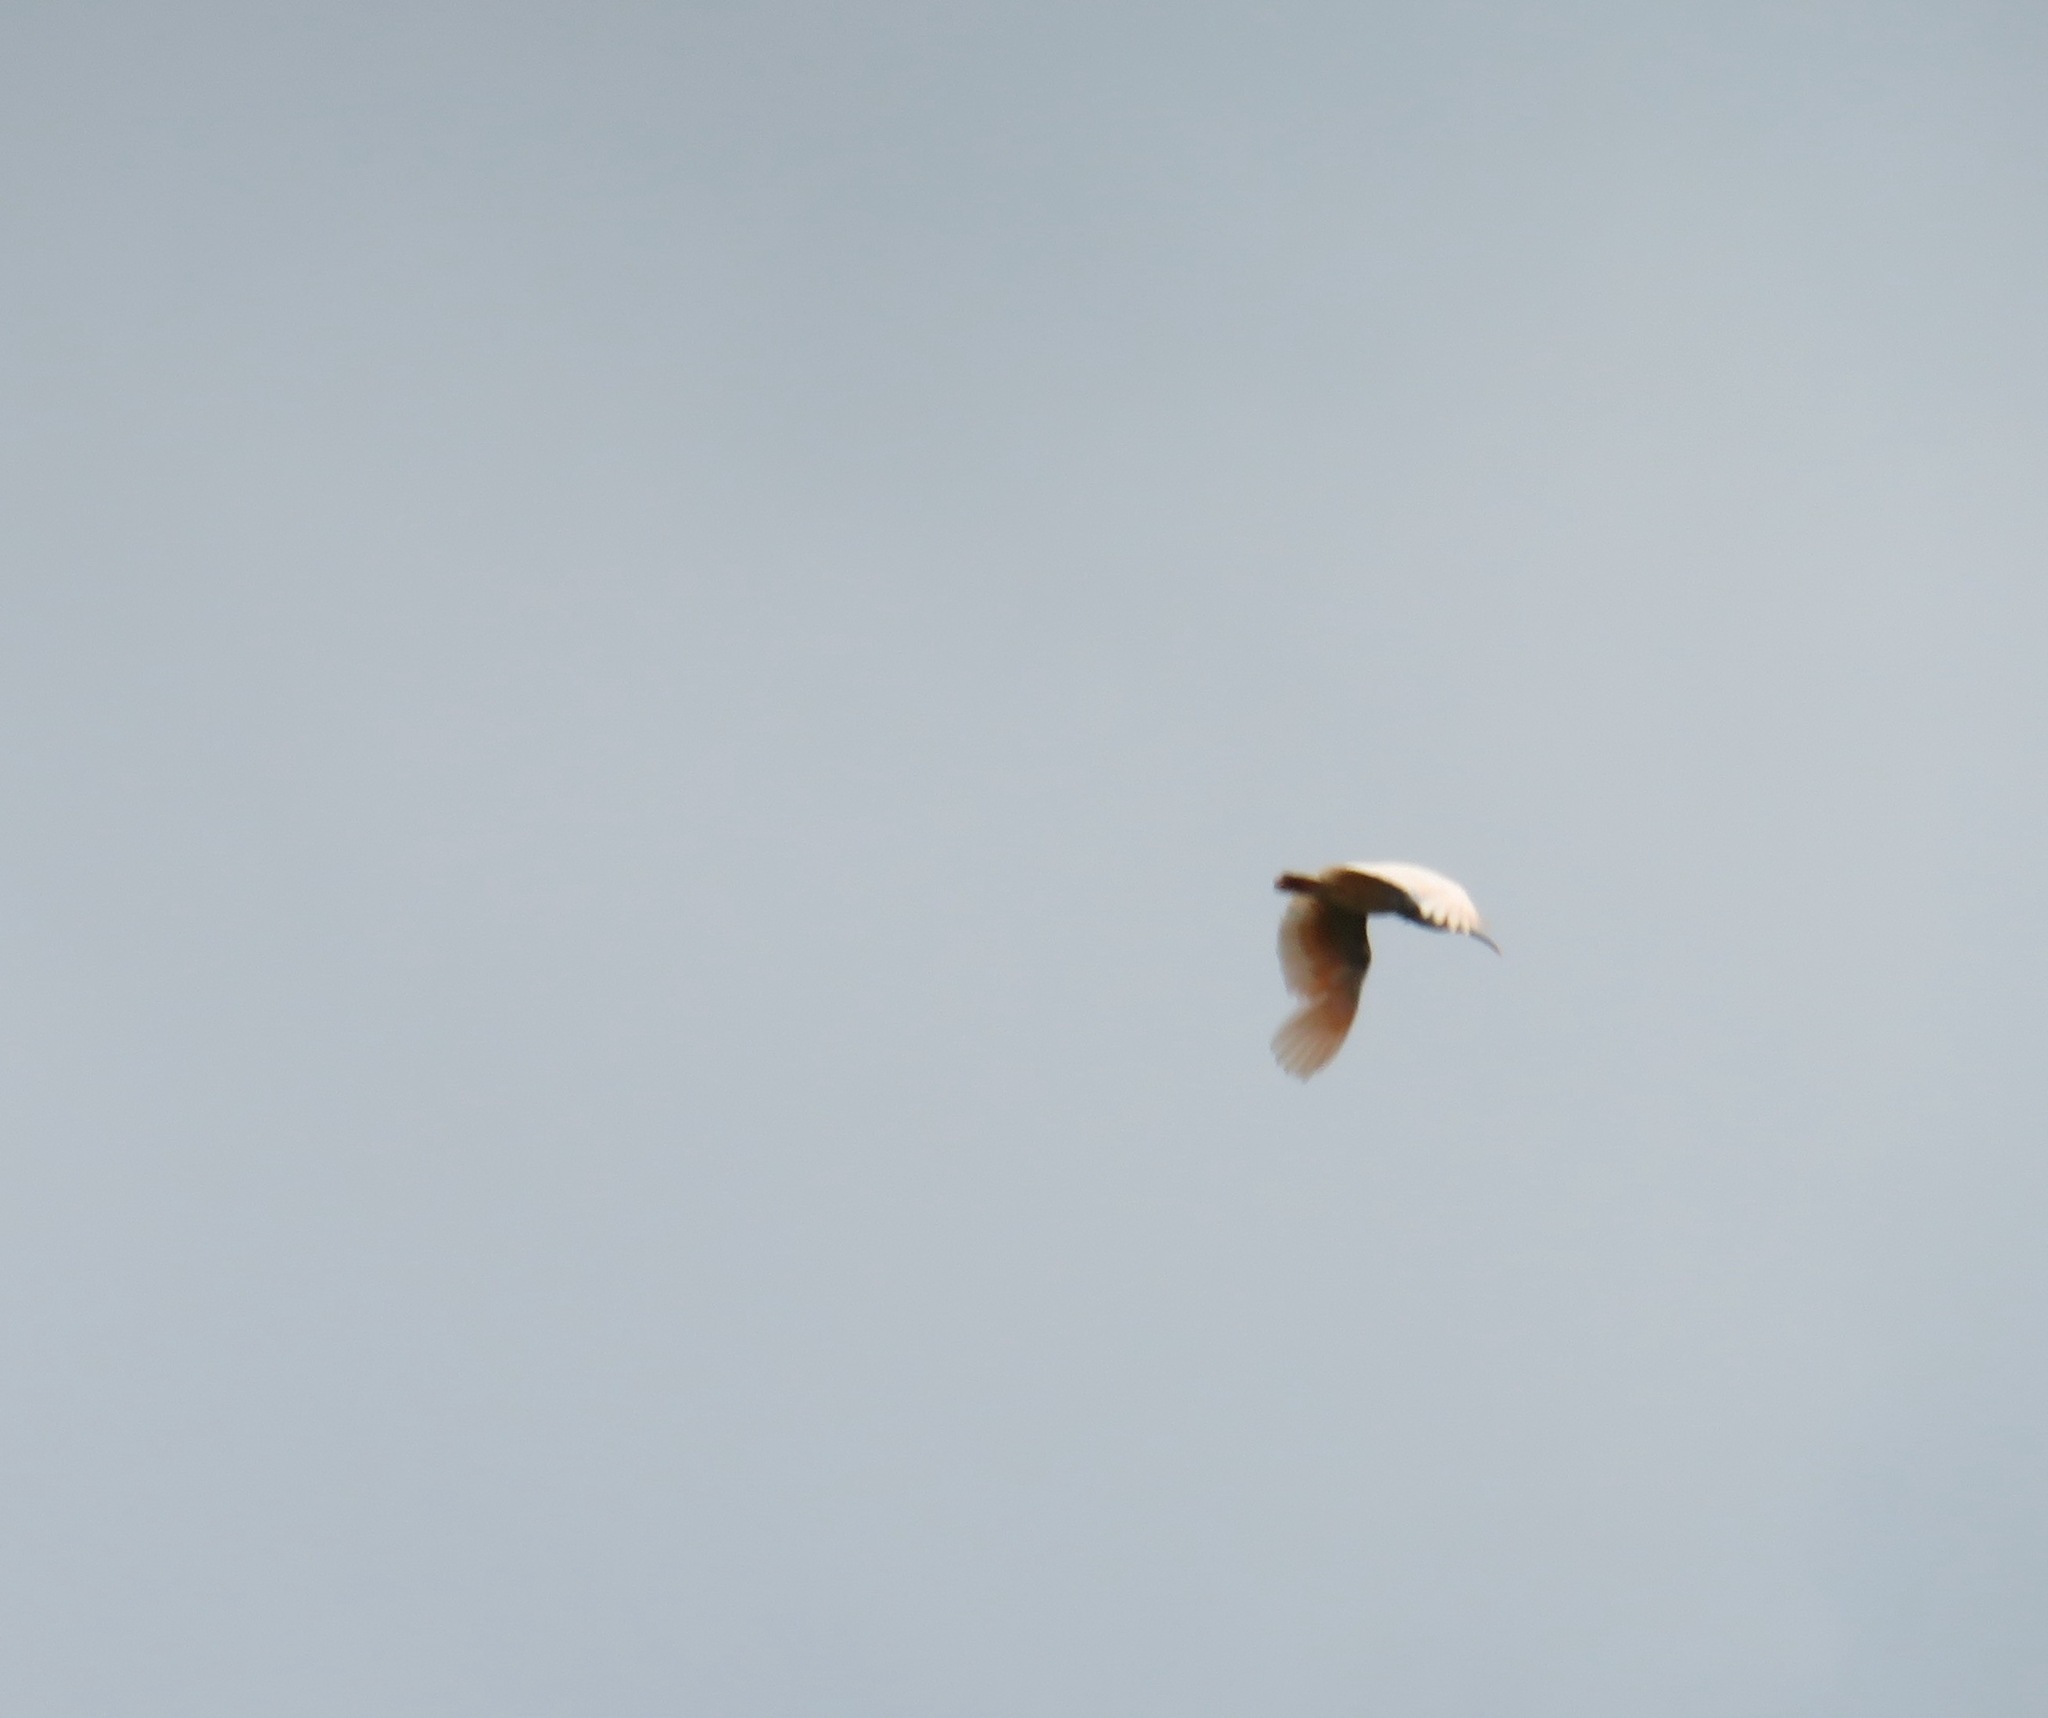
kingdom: Animalia
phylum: Chordata
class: Aves
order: Pelecaniformes
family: Threskiornithidae
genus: Nipponia
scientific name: Nipponia nippon
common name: Crested ibis
